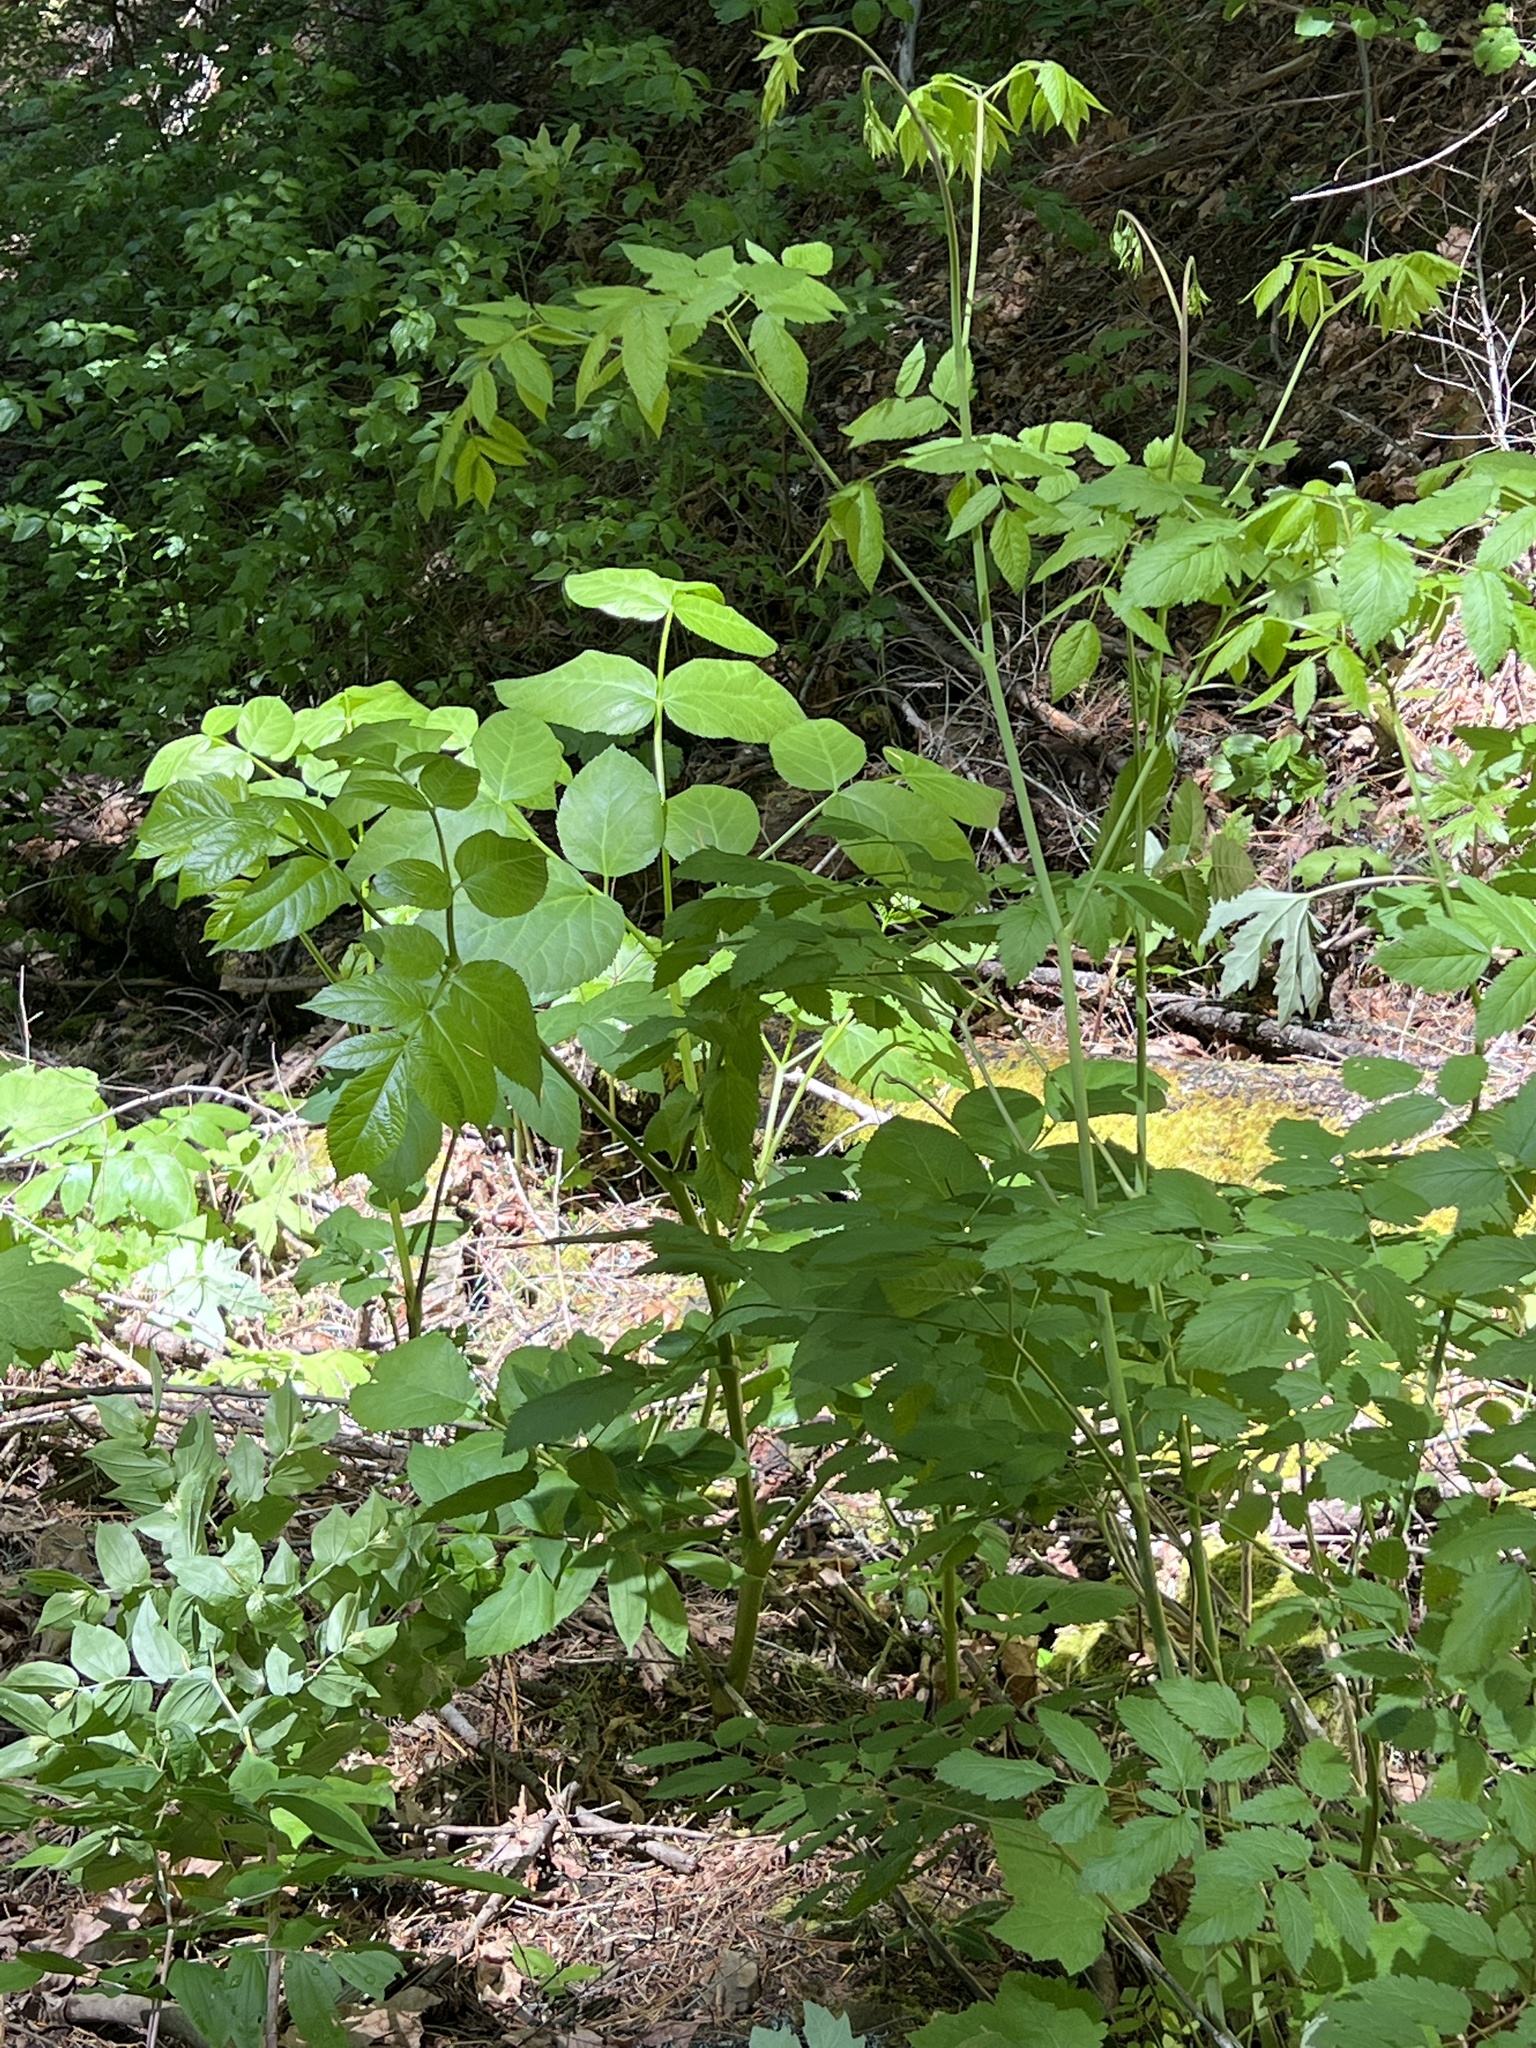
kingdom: Plantae
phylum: Tracheophyta
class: Magnoliopsida
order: Apiales
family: Araliaceae
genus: Aralia
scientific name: Aralia californica
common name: California-ginseng
